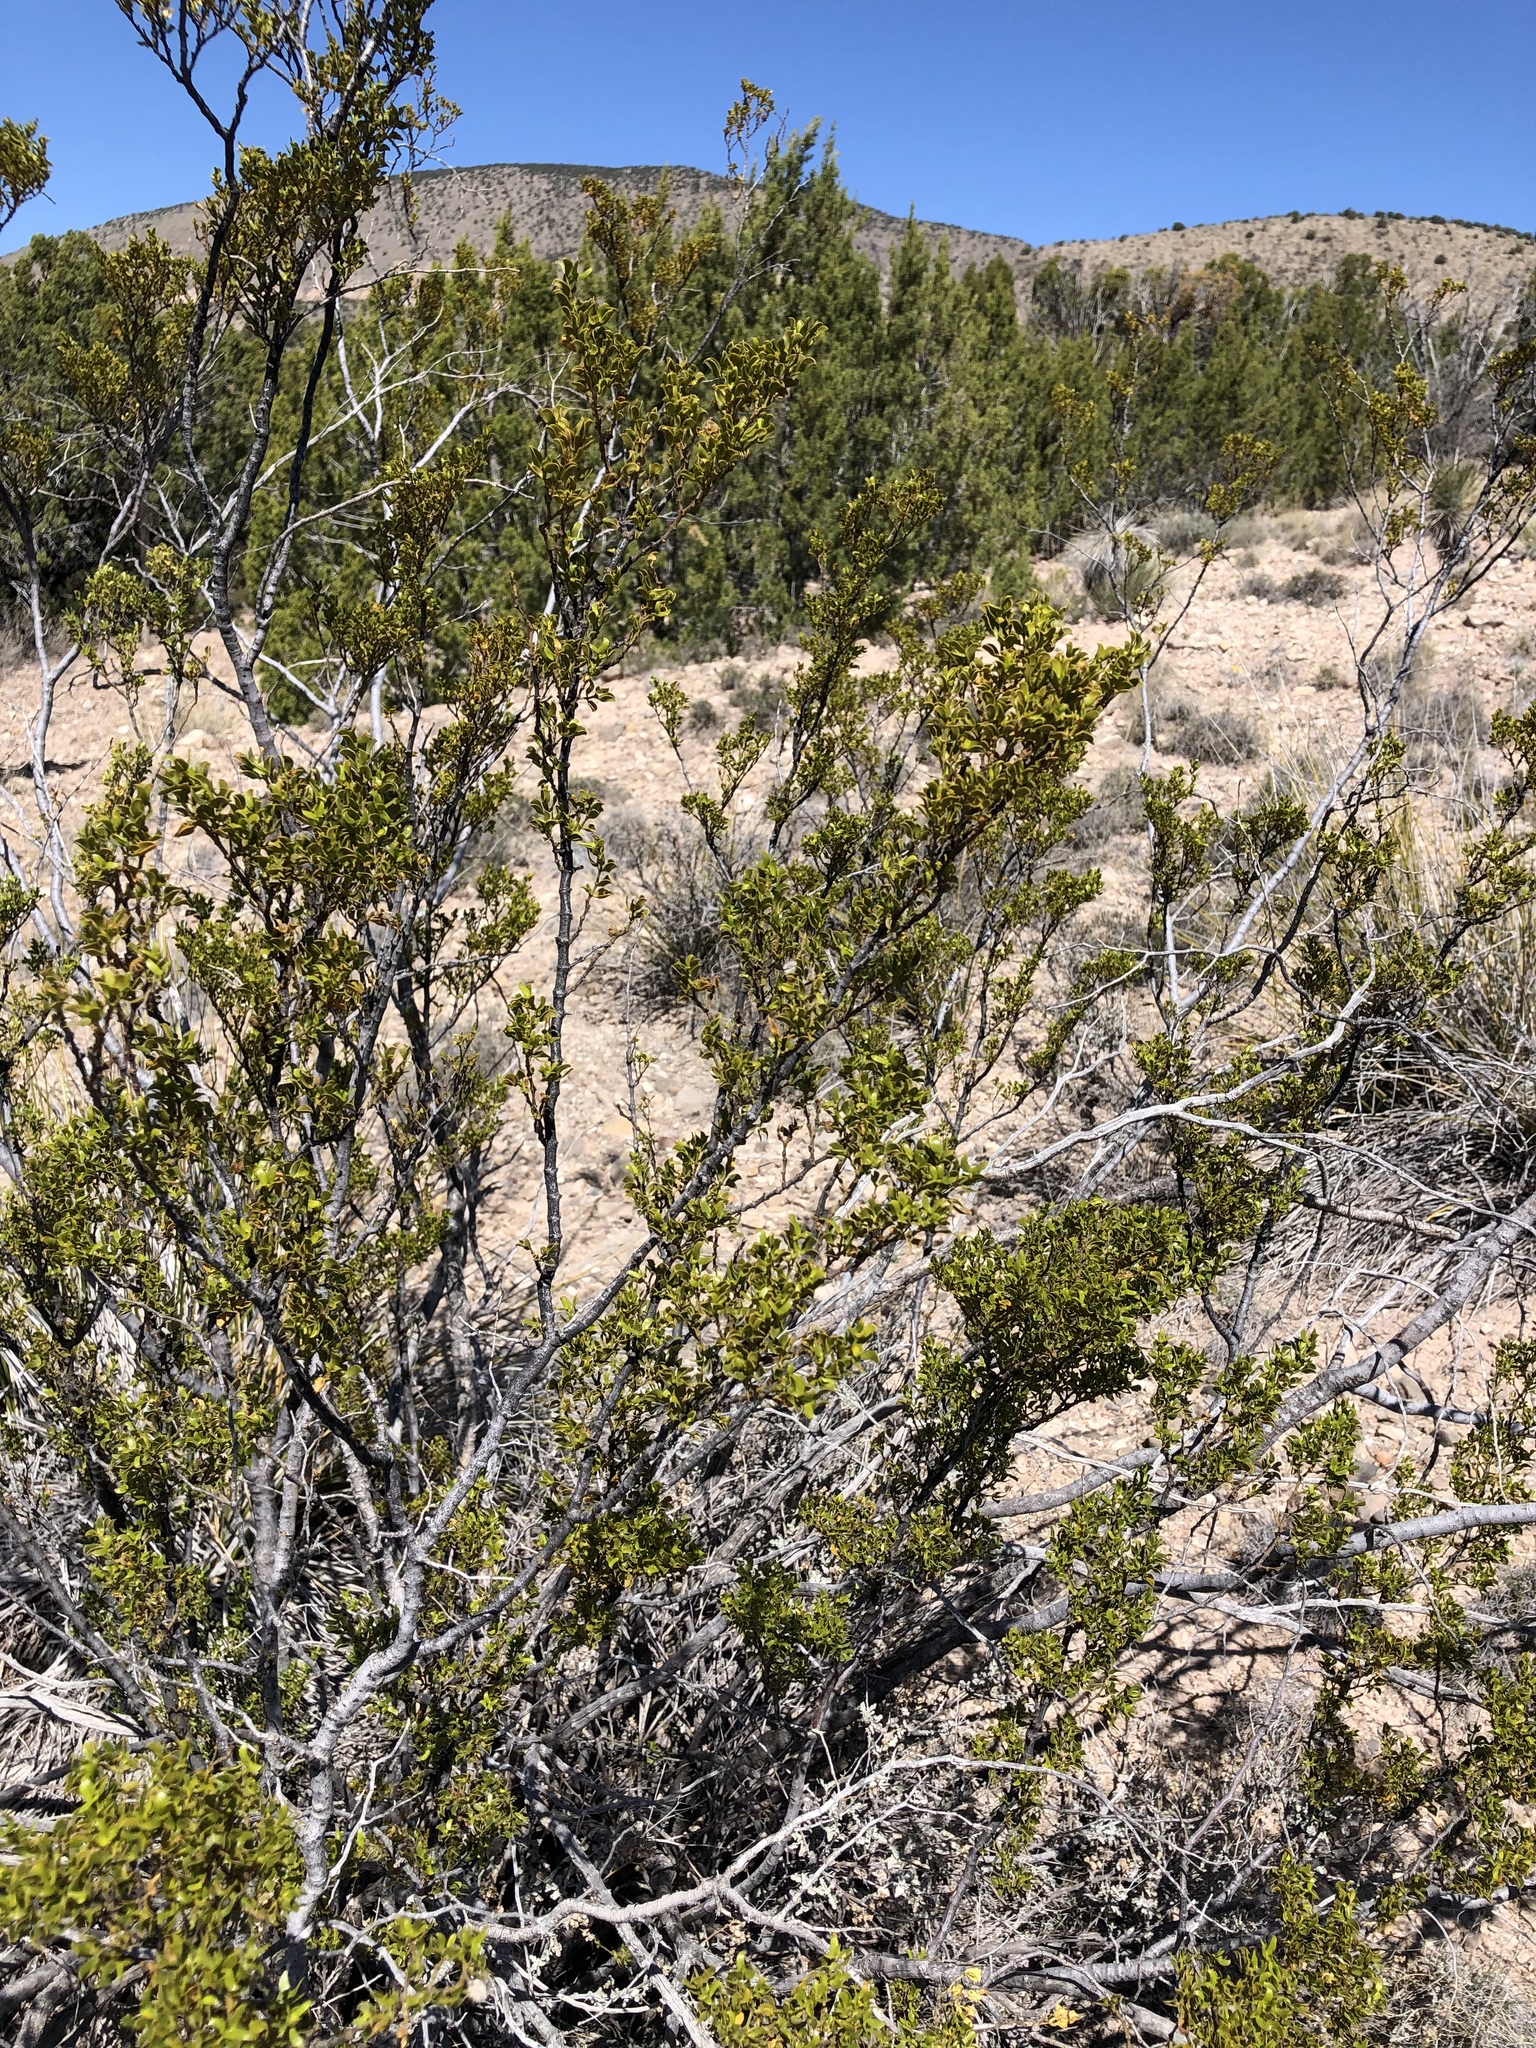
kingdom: Plantae
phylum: Tracheophyta
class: Magnoliopsida
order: Zygophyllales
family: Zygophyllaceae
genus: Larrea
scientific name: Larrea tridentata
